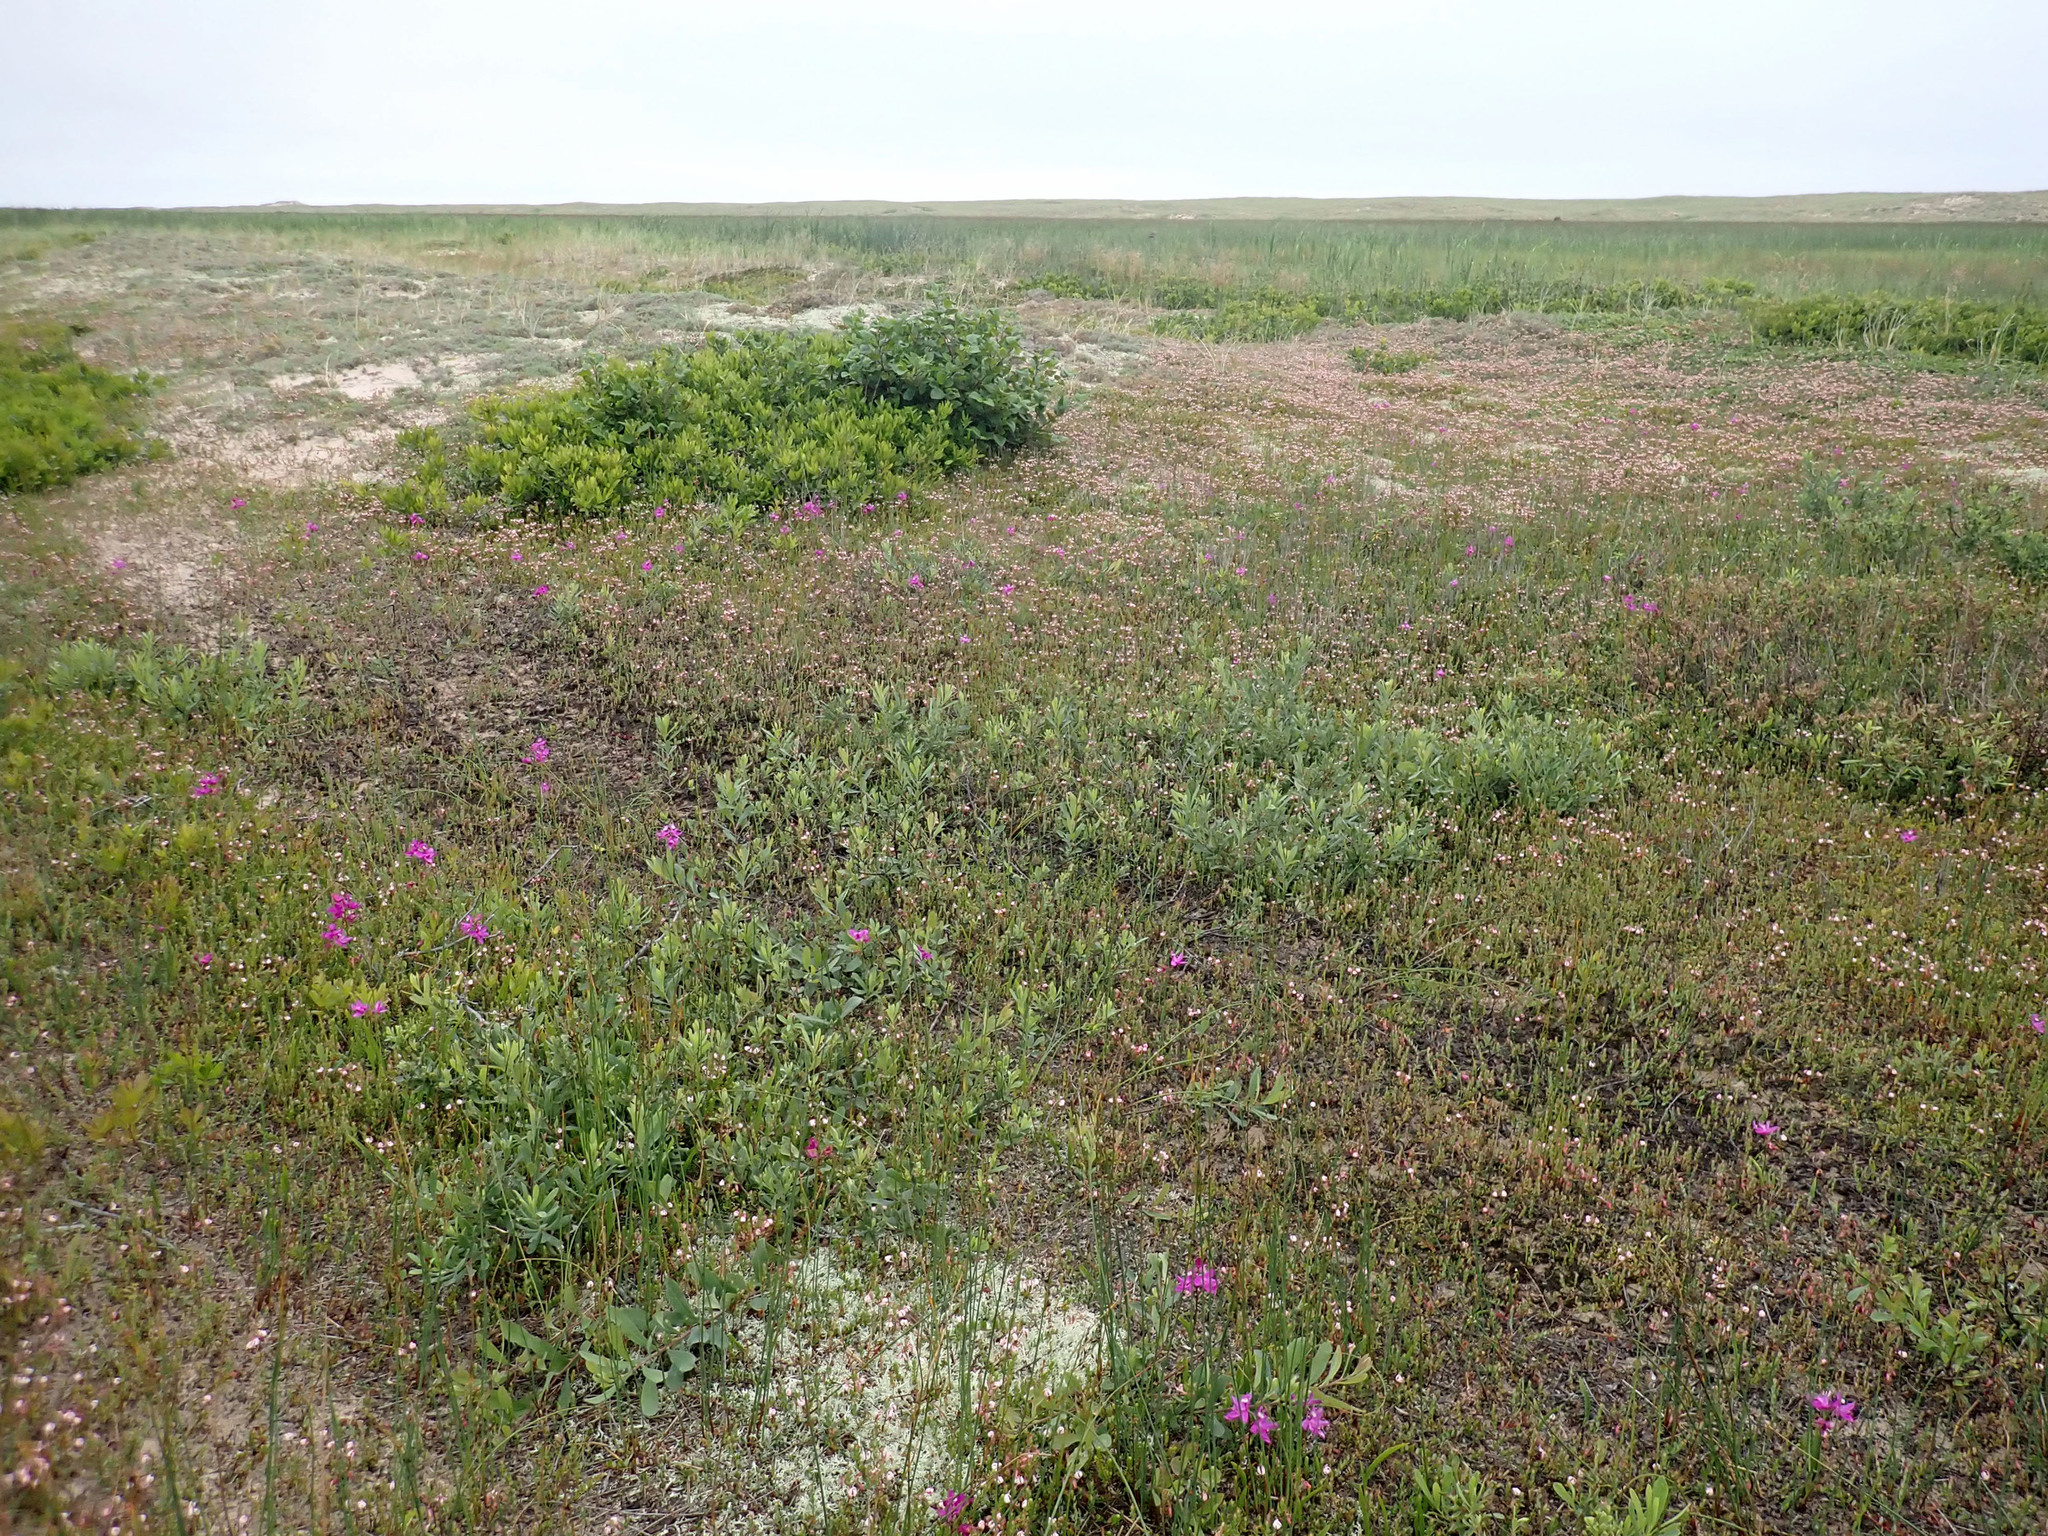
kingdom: Plantae
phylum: Tracheophyta
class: Liliopsida
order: Asparagales
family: Orchidaceae
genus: Calopogon
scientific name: Calopogon tuberosus
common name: Grass-pink
